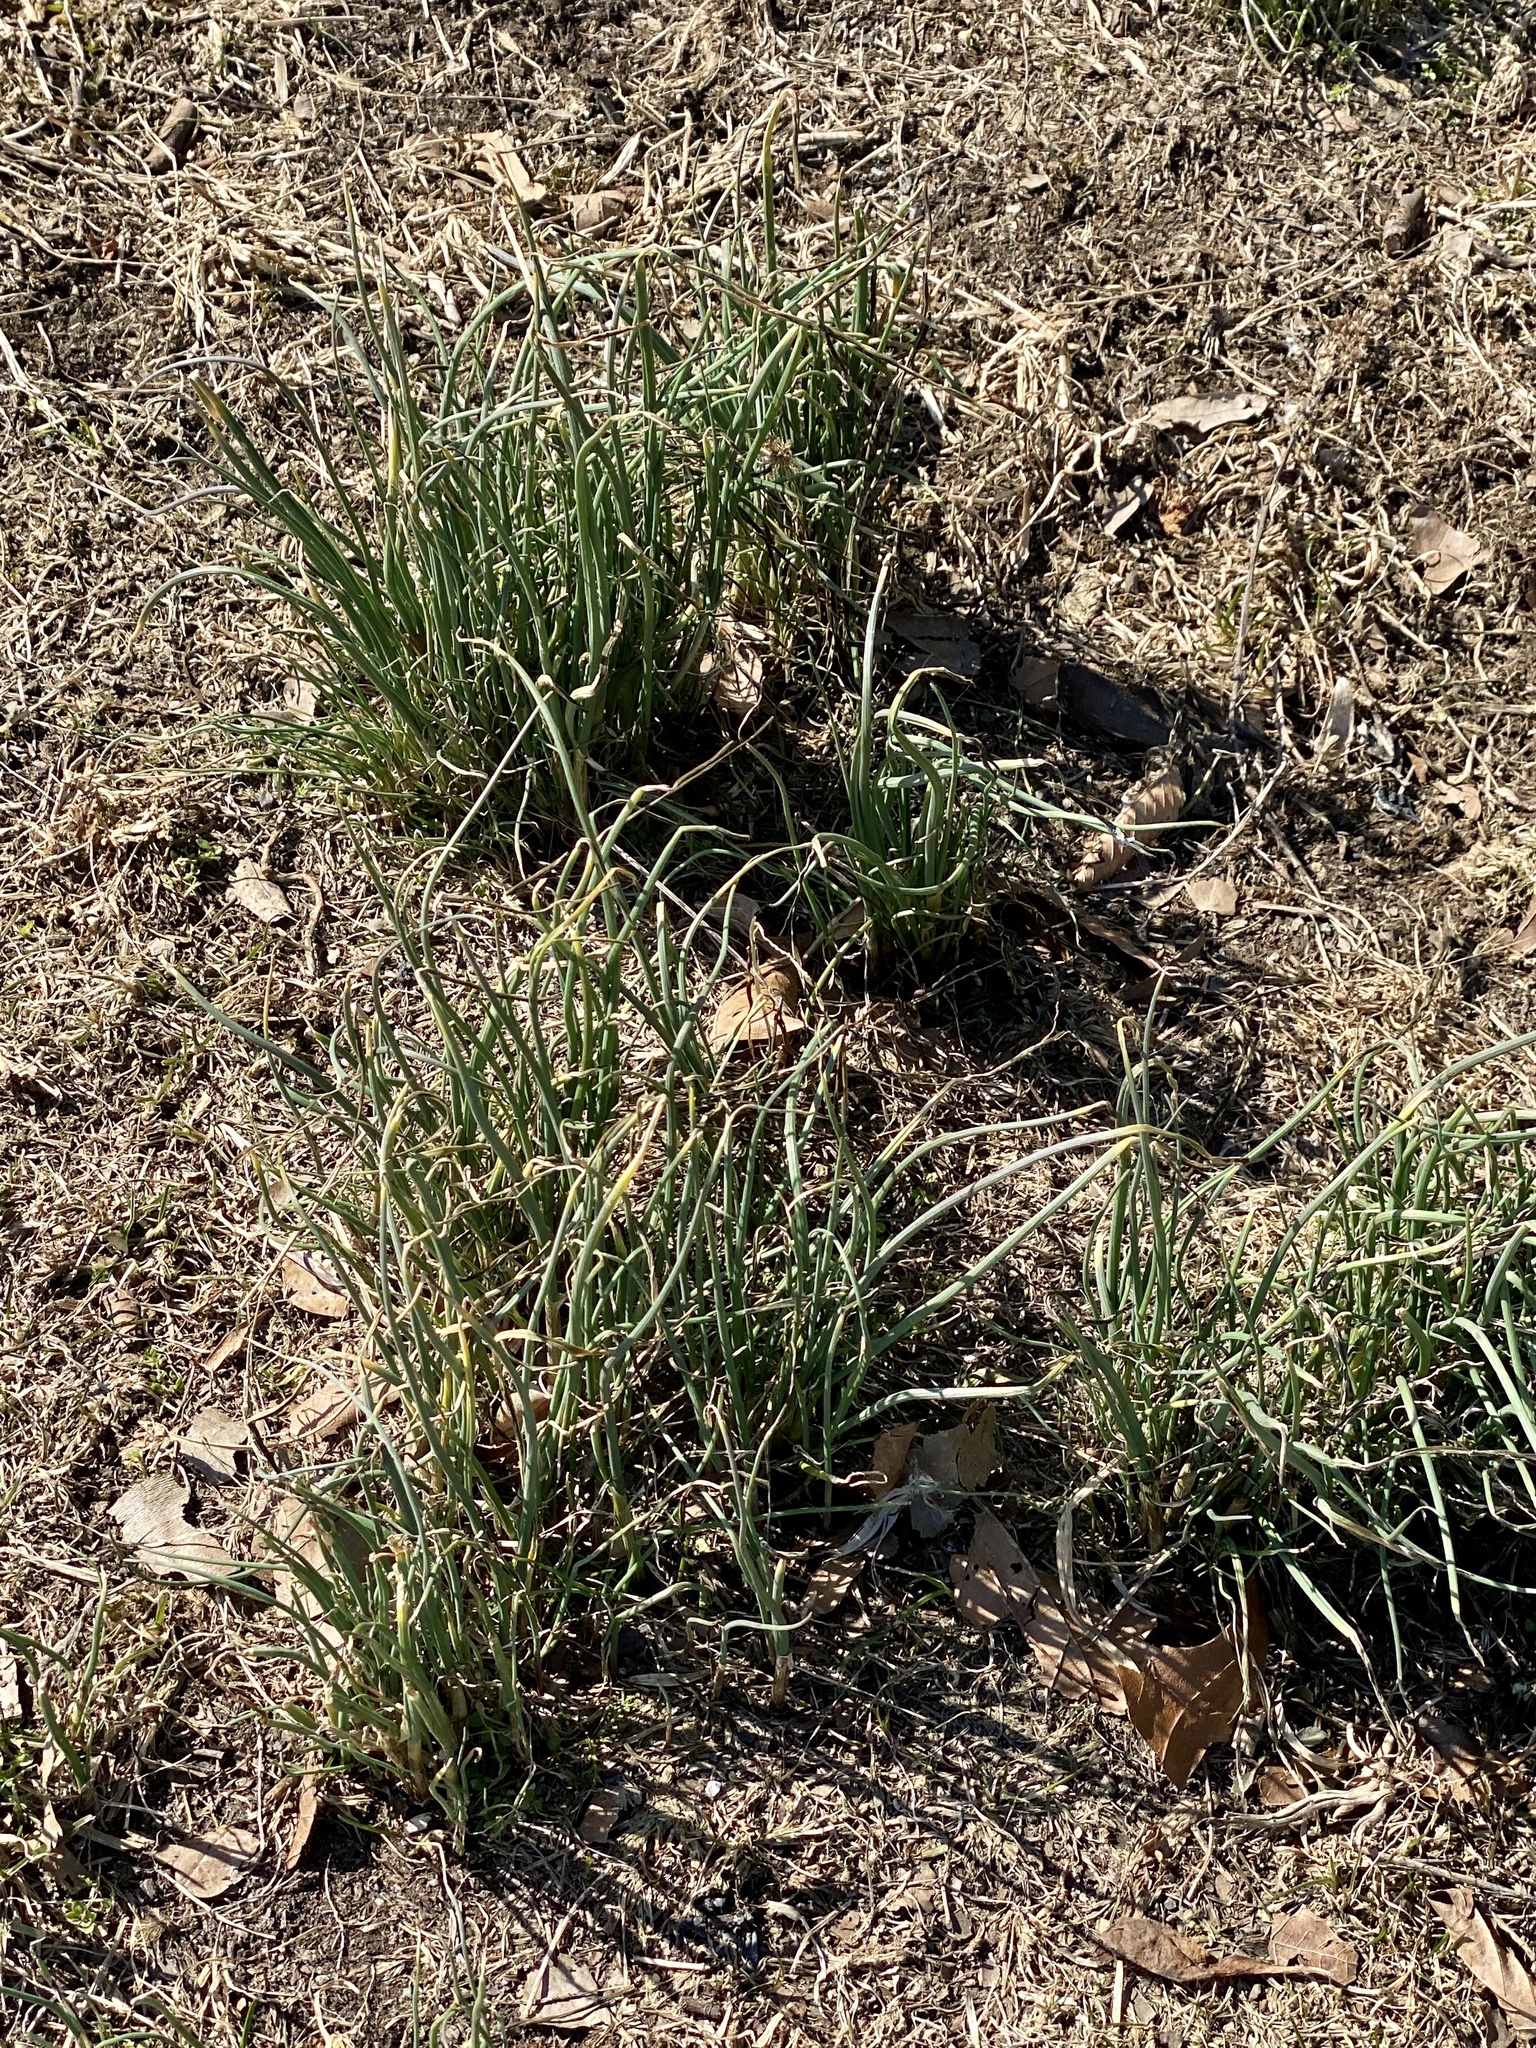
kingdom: Plantae
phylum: Tracheophyta
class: Liliopsida
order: Asparagales
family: Amaryllidaceae
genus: Allium
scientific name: Allium vineale
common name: Crow garlic
